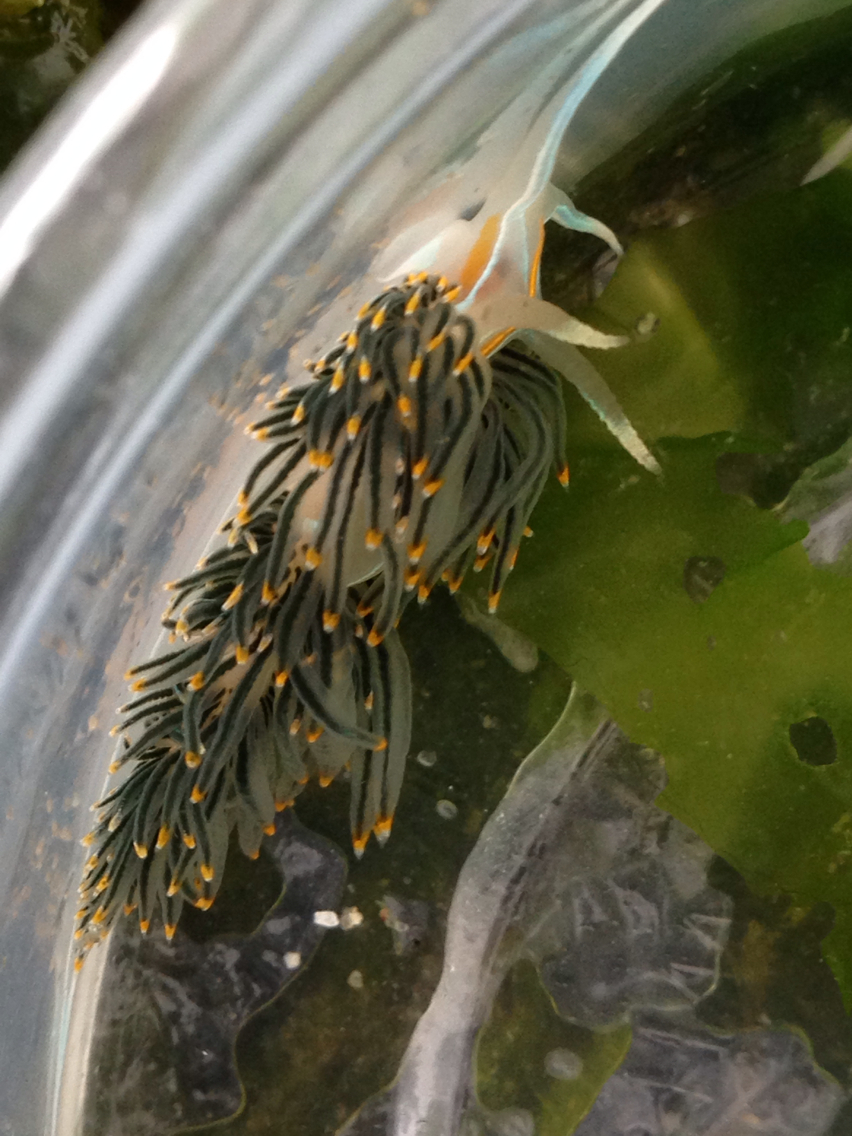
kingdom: Animalia
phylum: Mollusca
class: Gastropoda
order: Nudibranchia
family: Myrrhinidae
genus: Hermissenda
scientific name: Hermissenda opalescens
